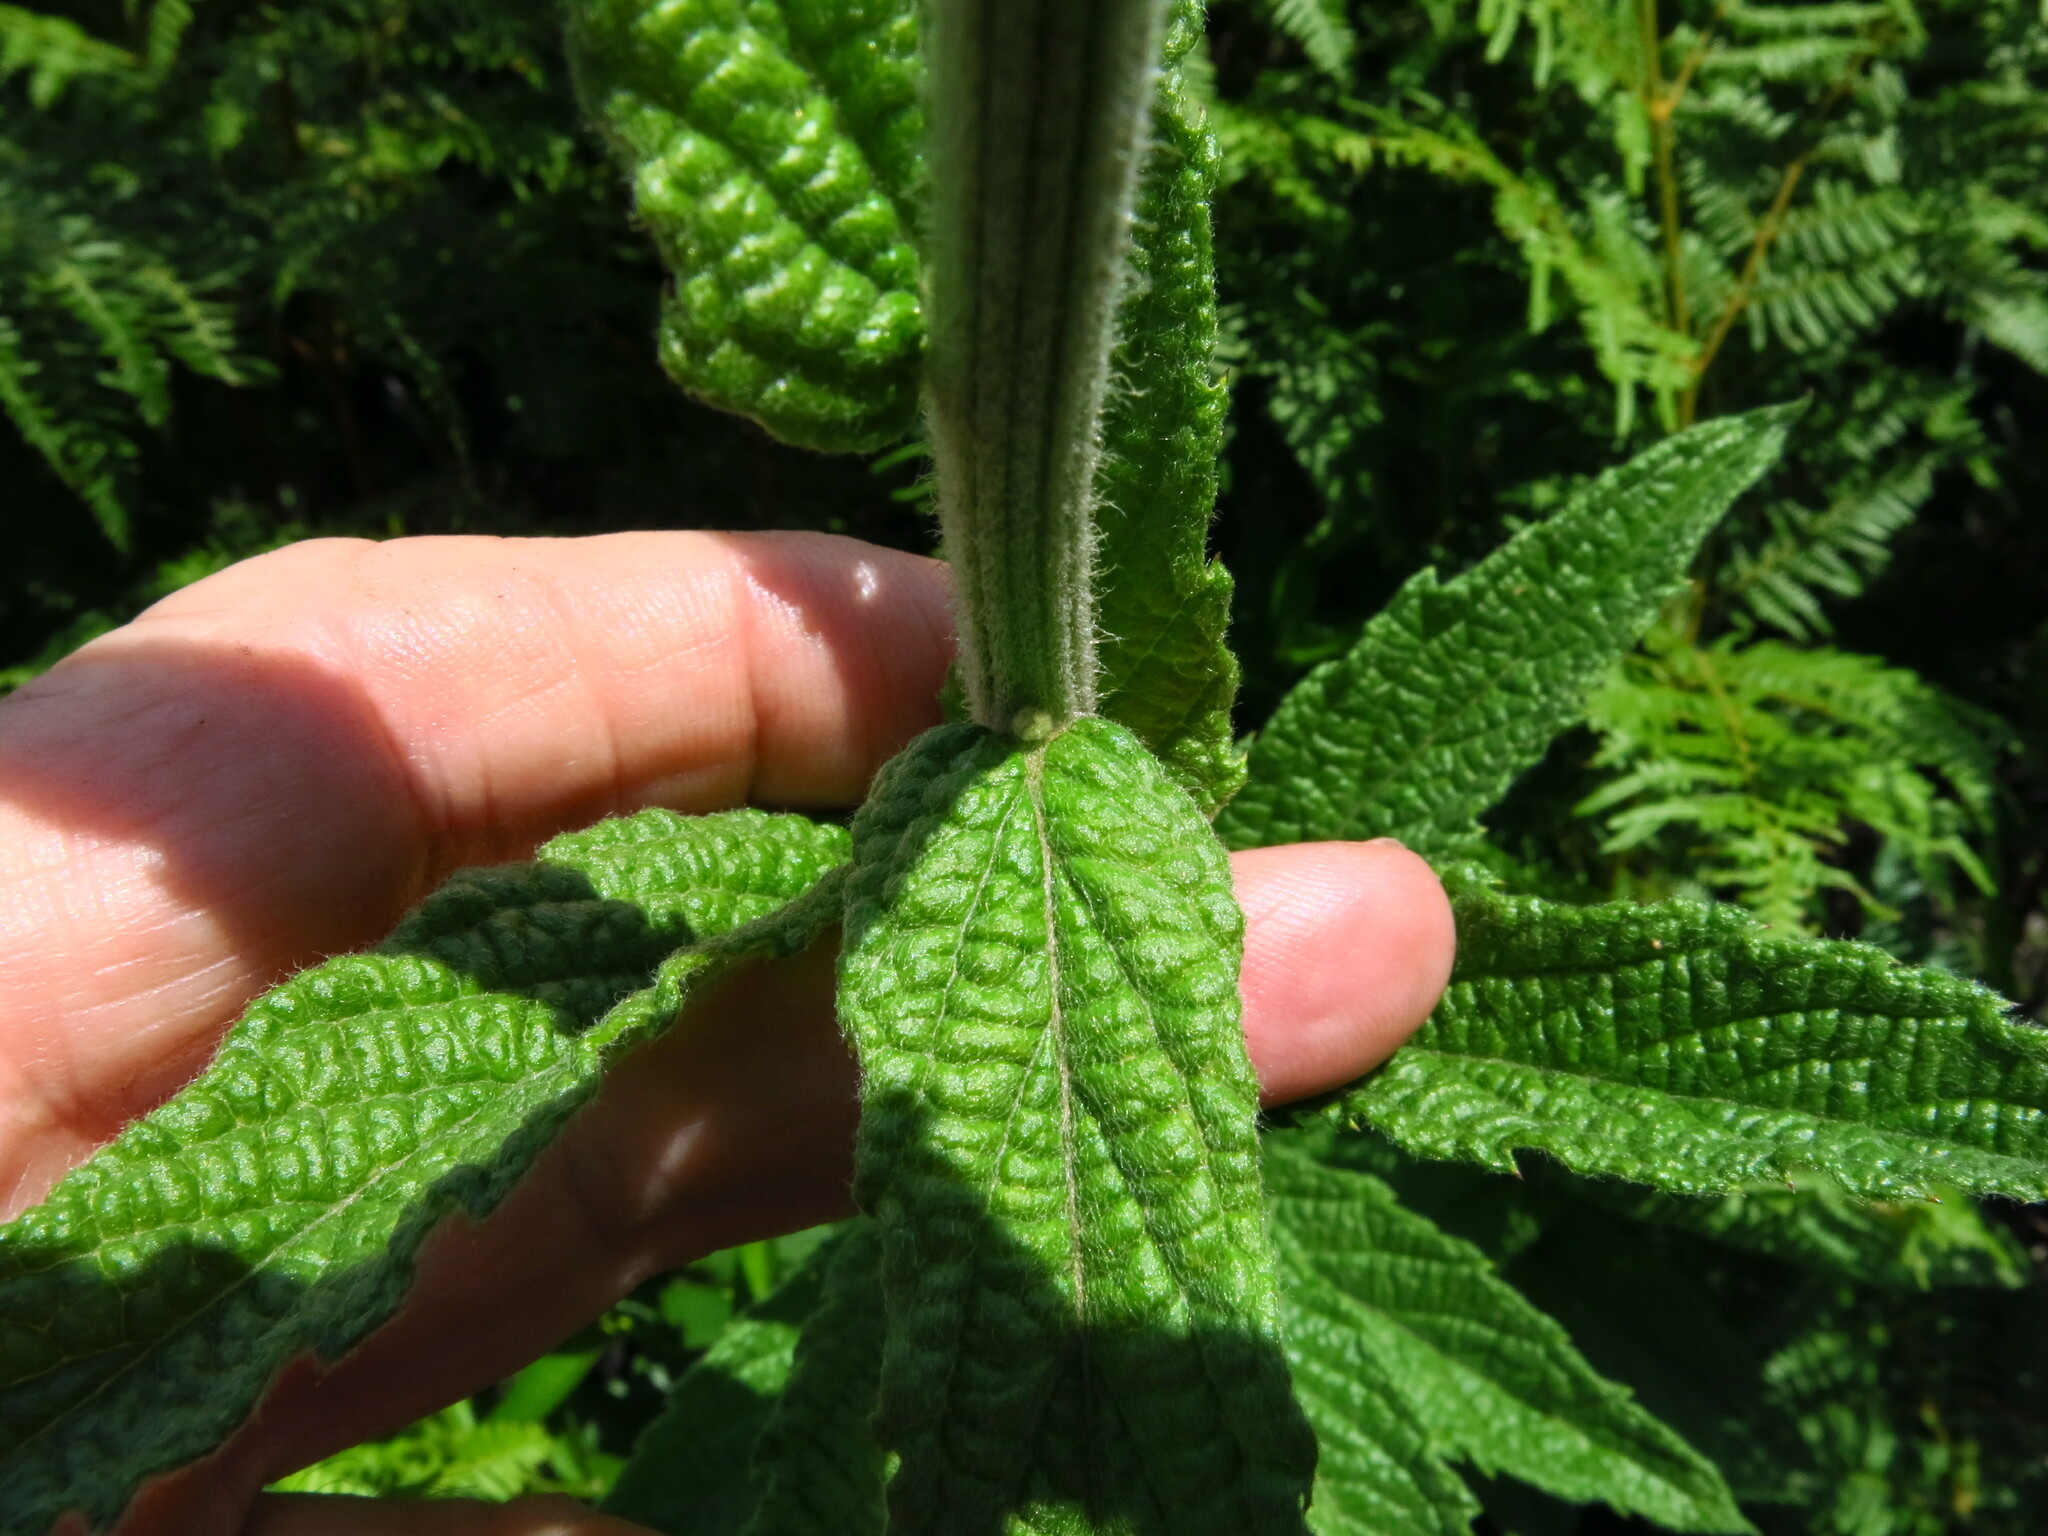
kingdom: Plantae
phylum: Tracheophyta
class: Magnoliopsida
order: Asterales
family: Asteraceae
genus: Hilliardiella
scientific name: Hilliardiella hirsuta
